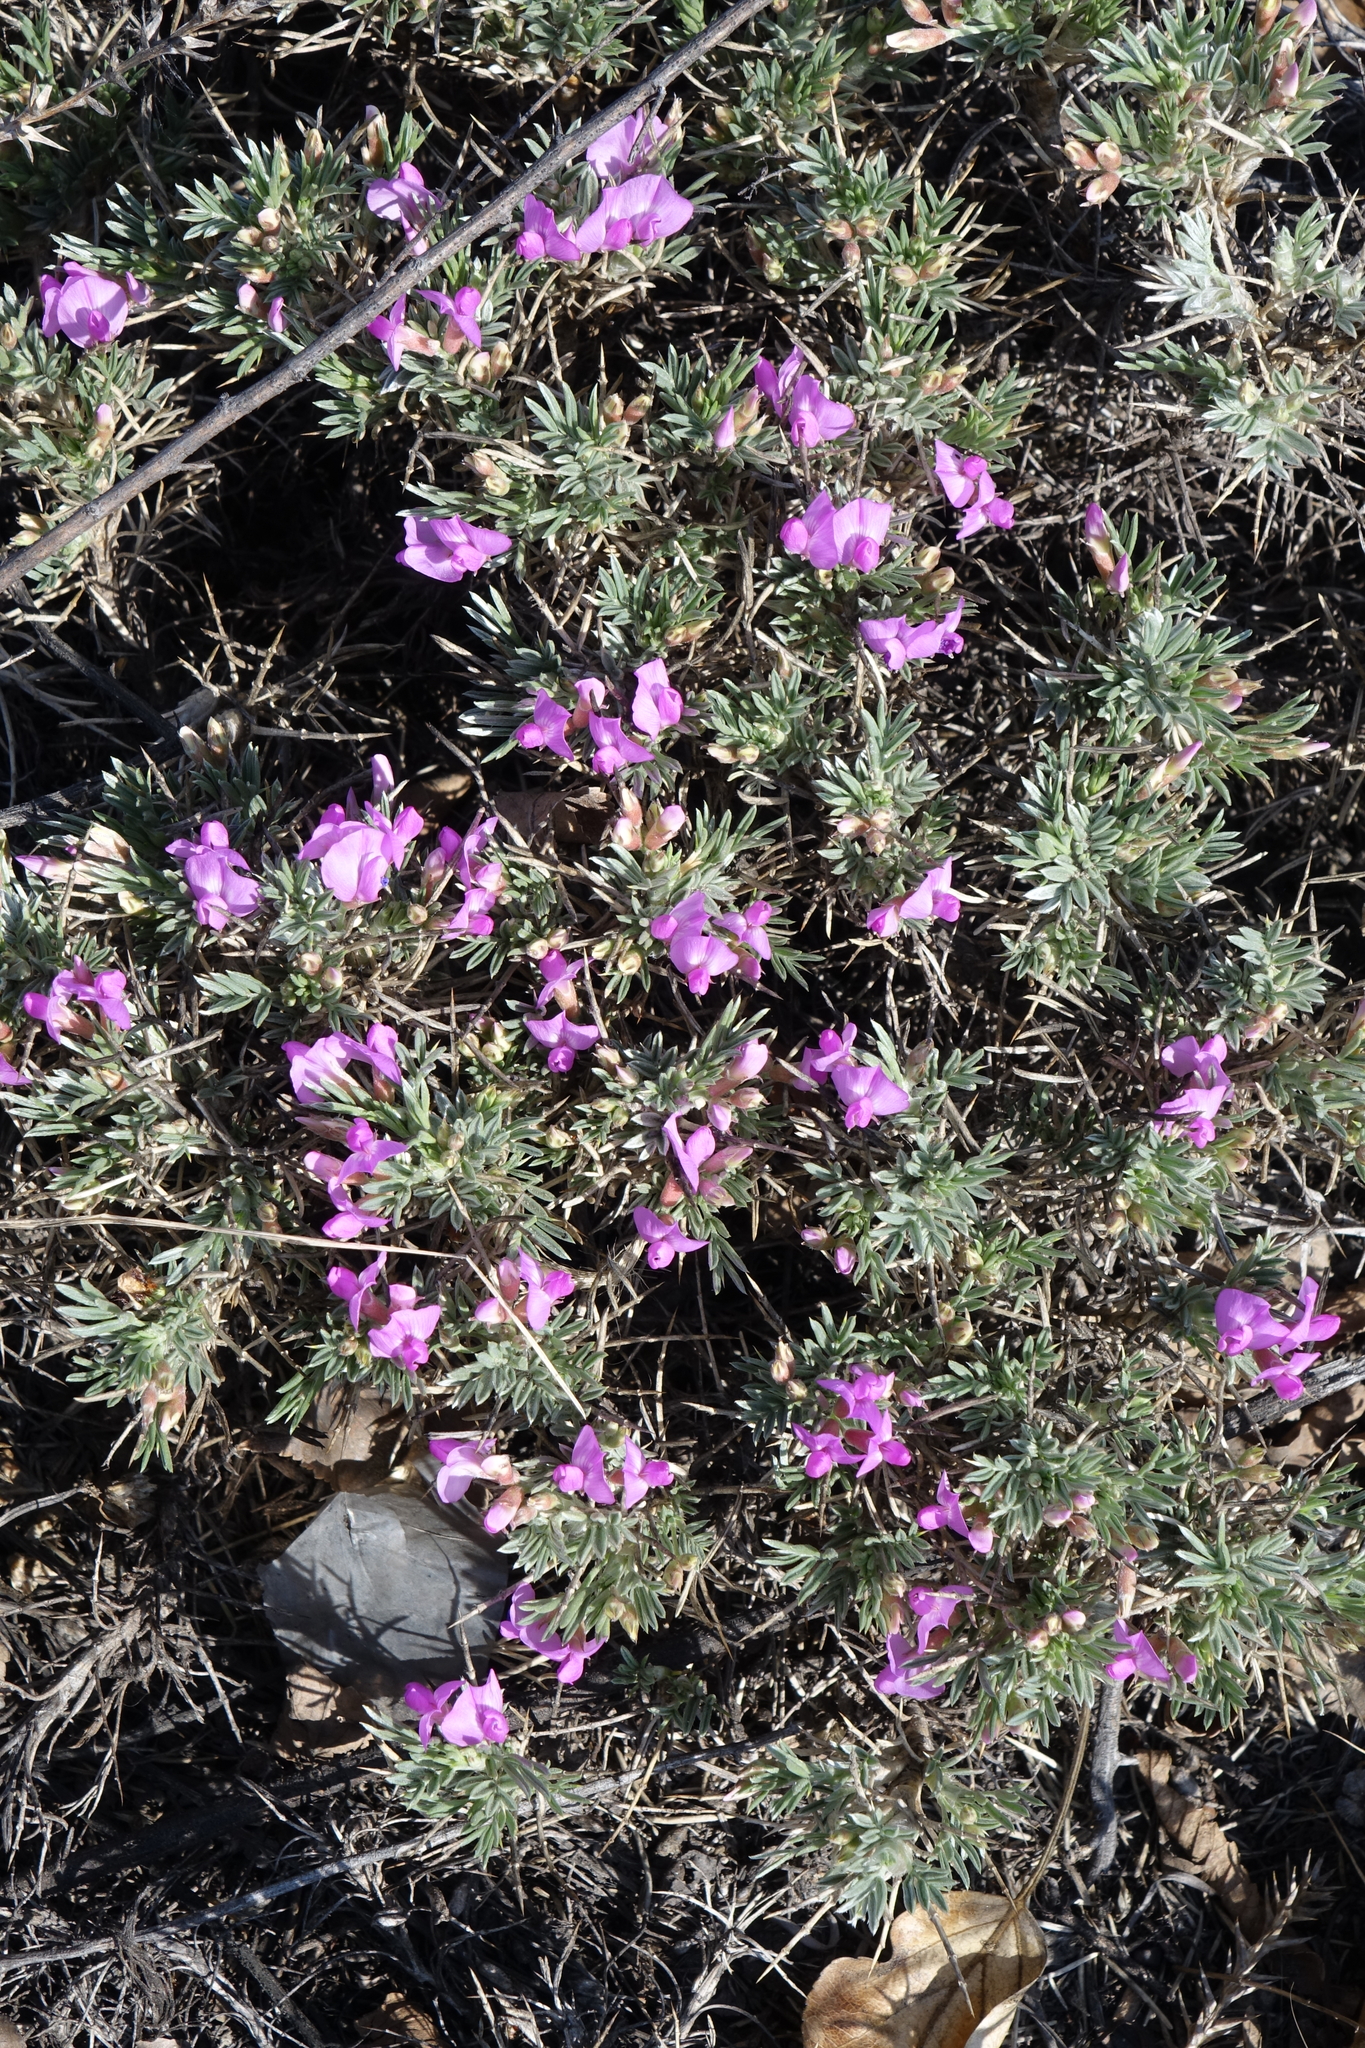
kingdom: Plantae
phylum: Tracheophyta
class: Magnoliopsida
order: Fabales
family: Fabaceae
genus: Oxytropis
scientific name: Oxytropis borissoviae
